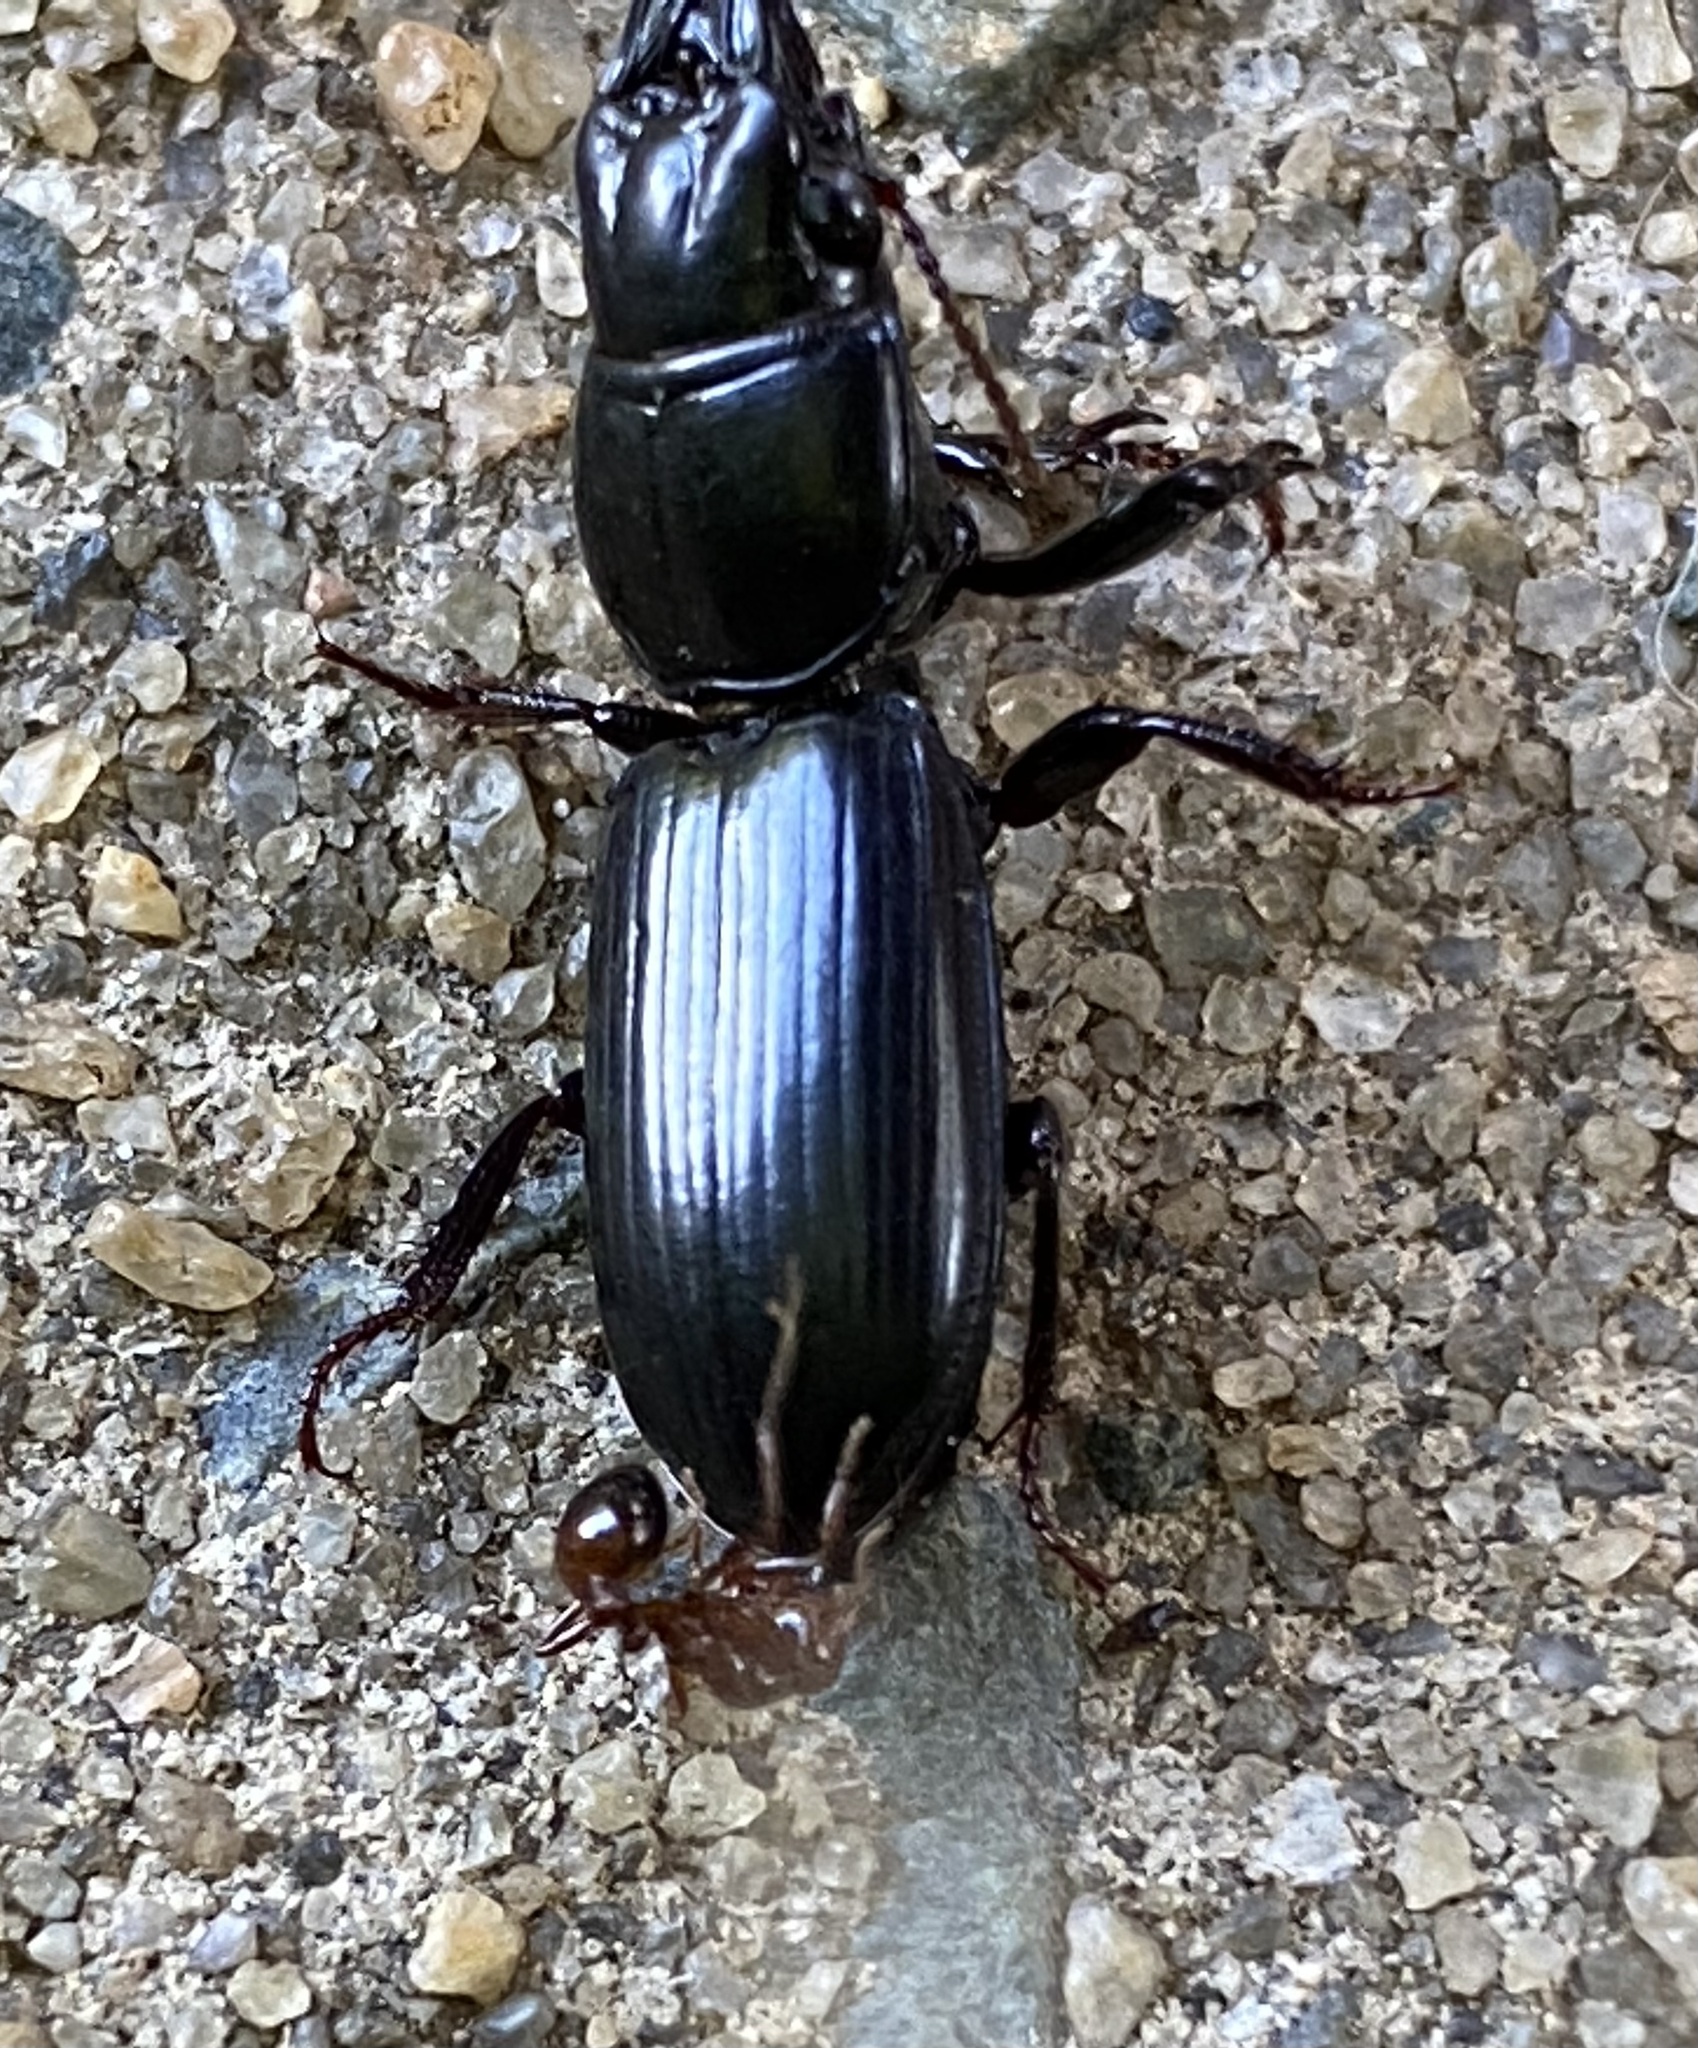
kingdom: Animalia
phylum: Arthropoda
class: Insecta
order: Hymenoptera
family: Formicidae
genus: Solenopsis
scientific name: Solenopsis invicta
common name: Red imported fire ant
